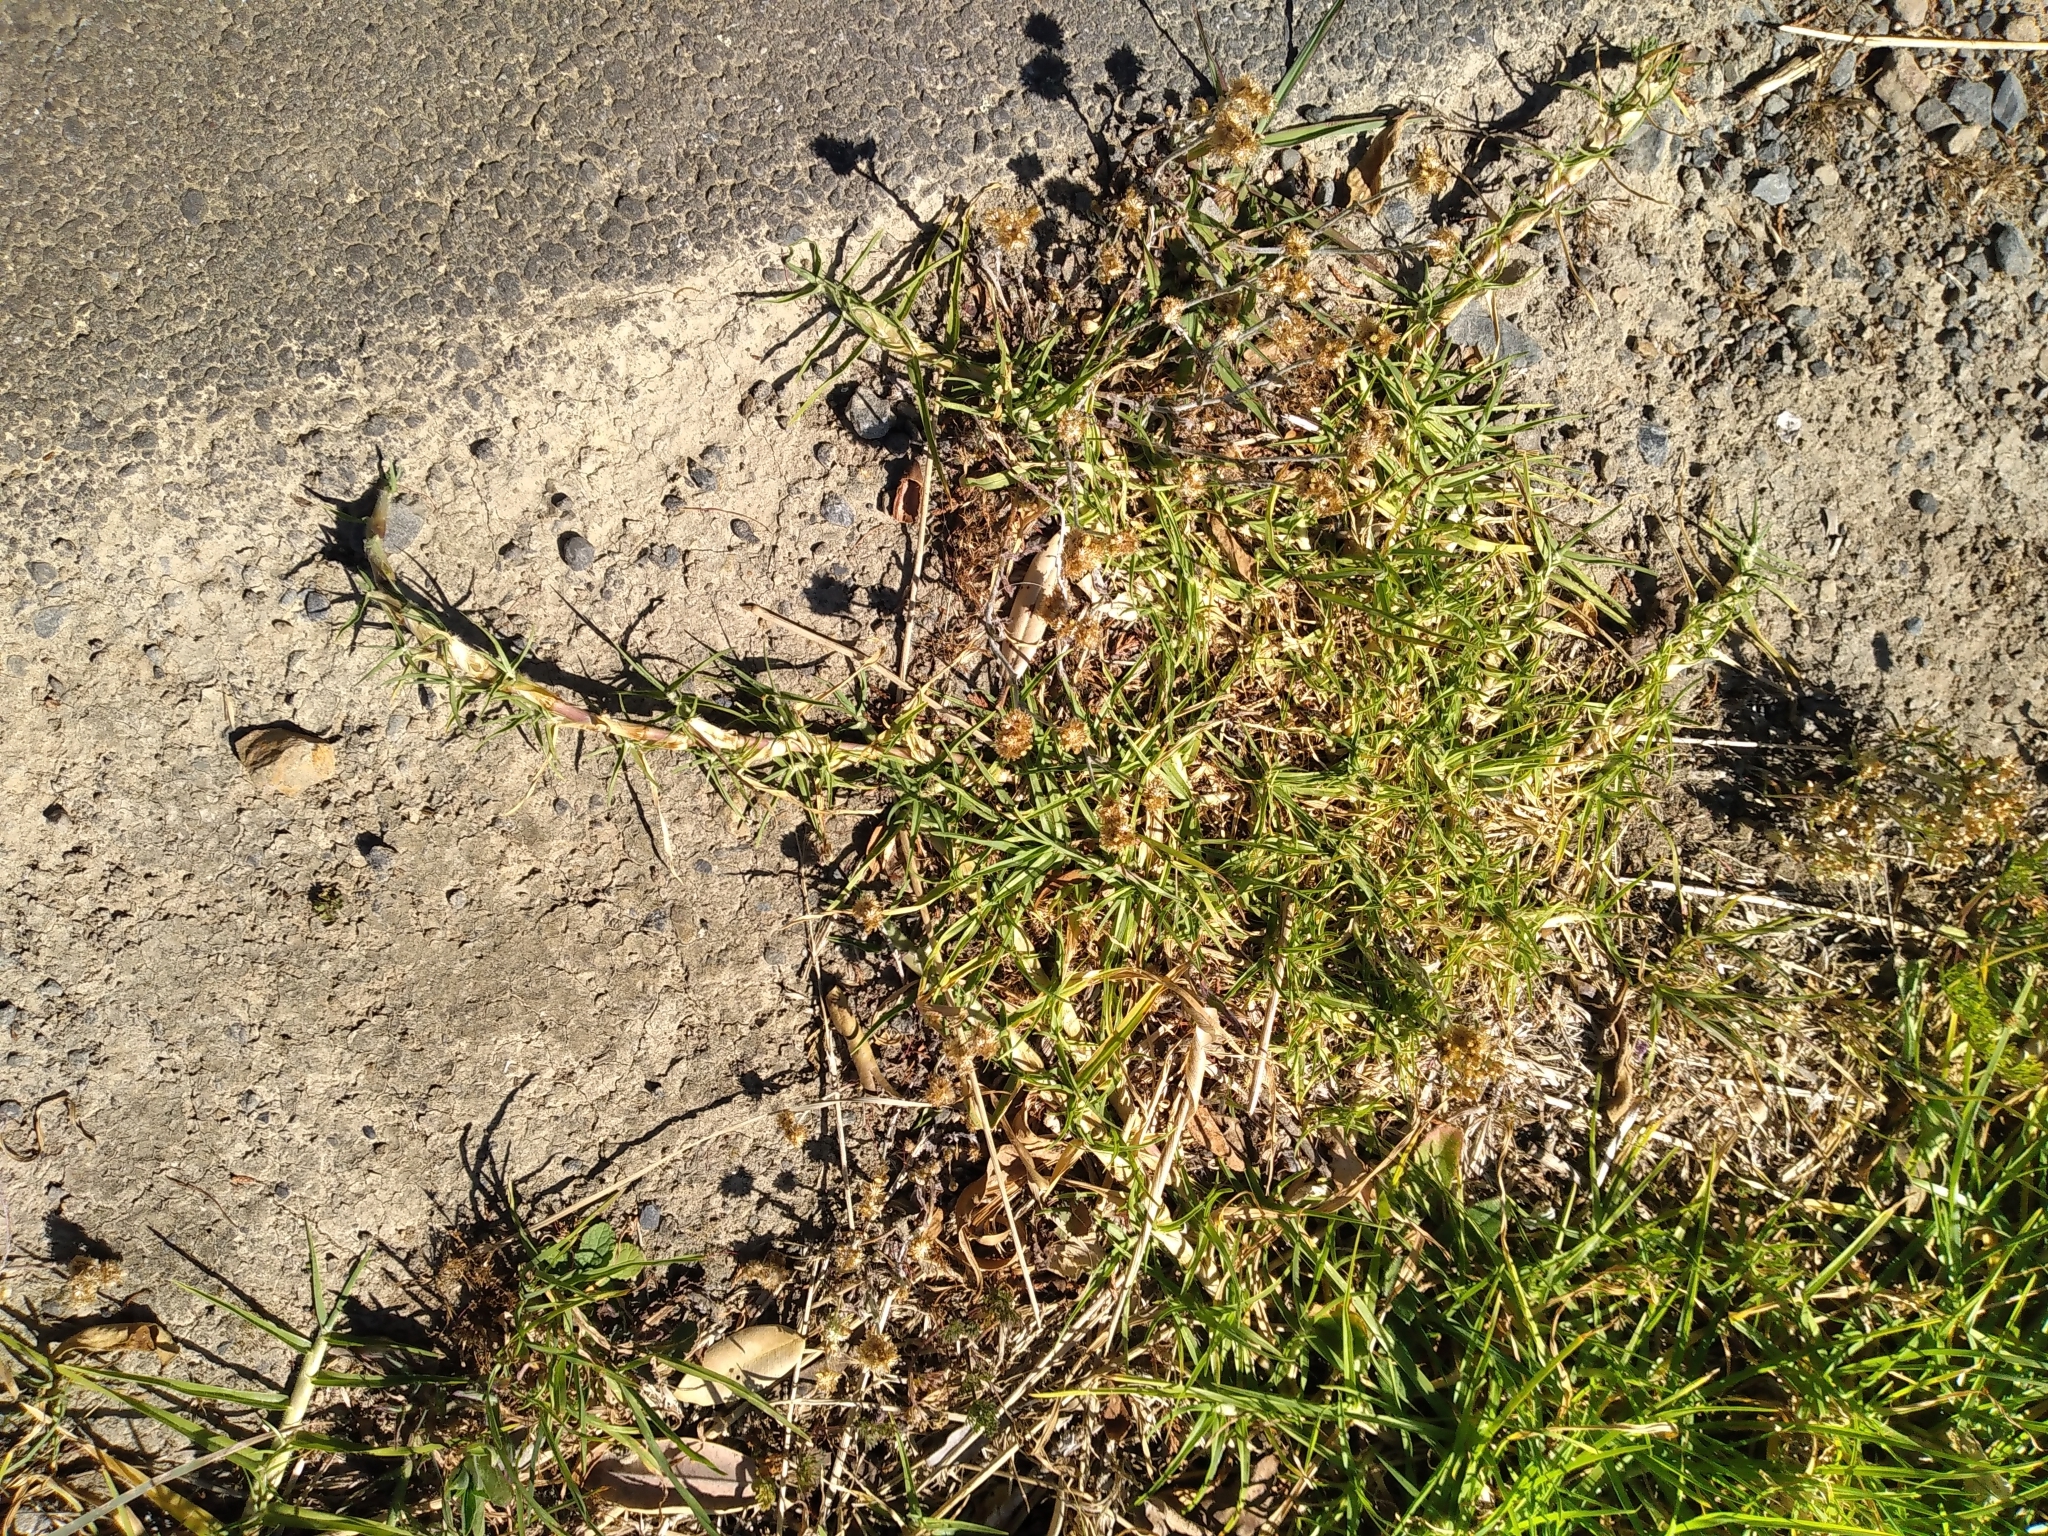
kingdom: Plantae
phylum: Tracheophyta
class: Liliopsida
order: Poales
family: Poaceae
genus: Cenchrus
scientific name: Cenchrus clandestinus
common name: Kikuyugrass
